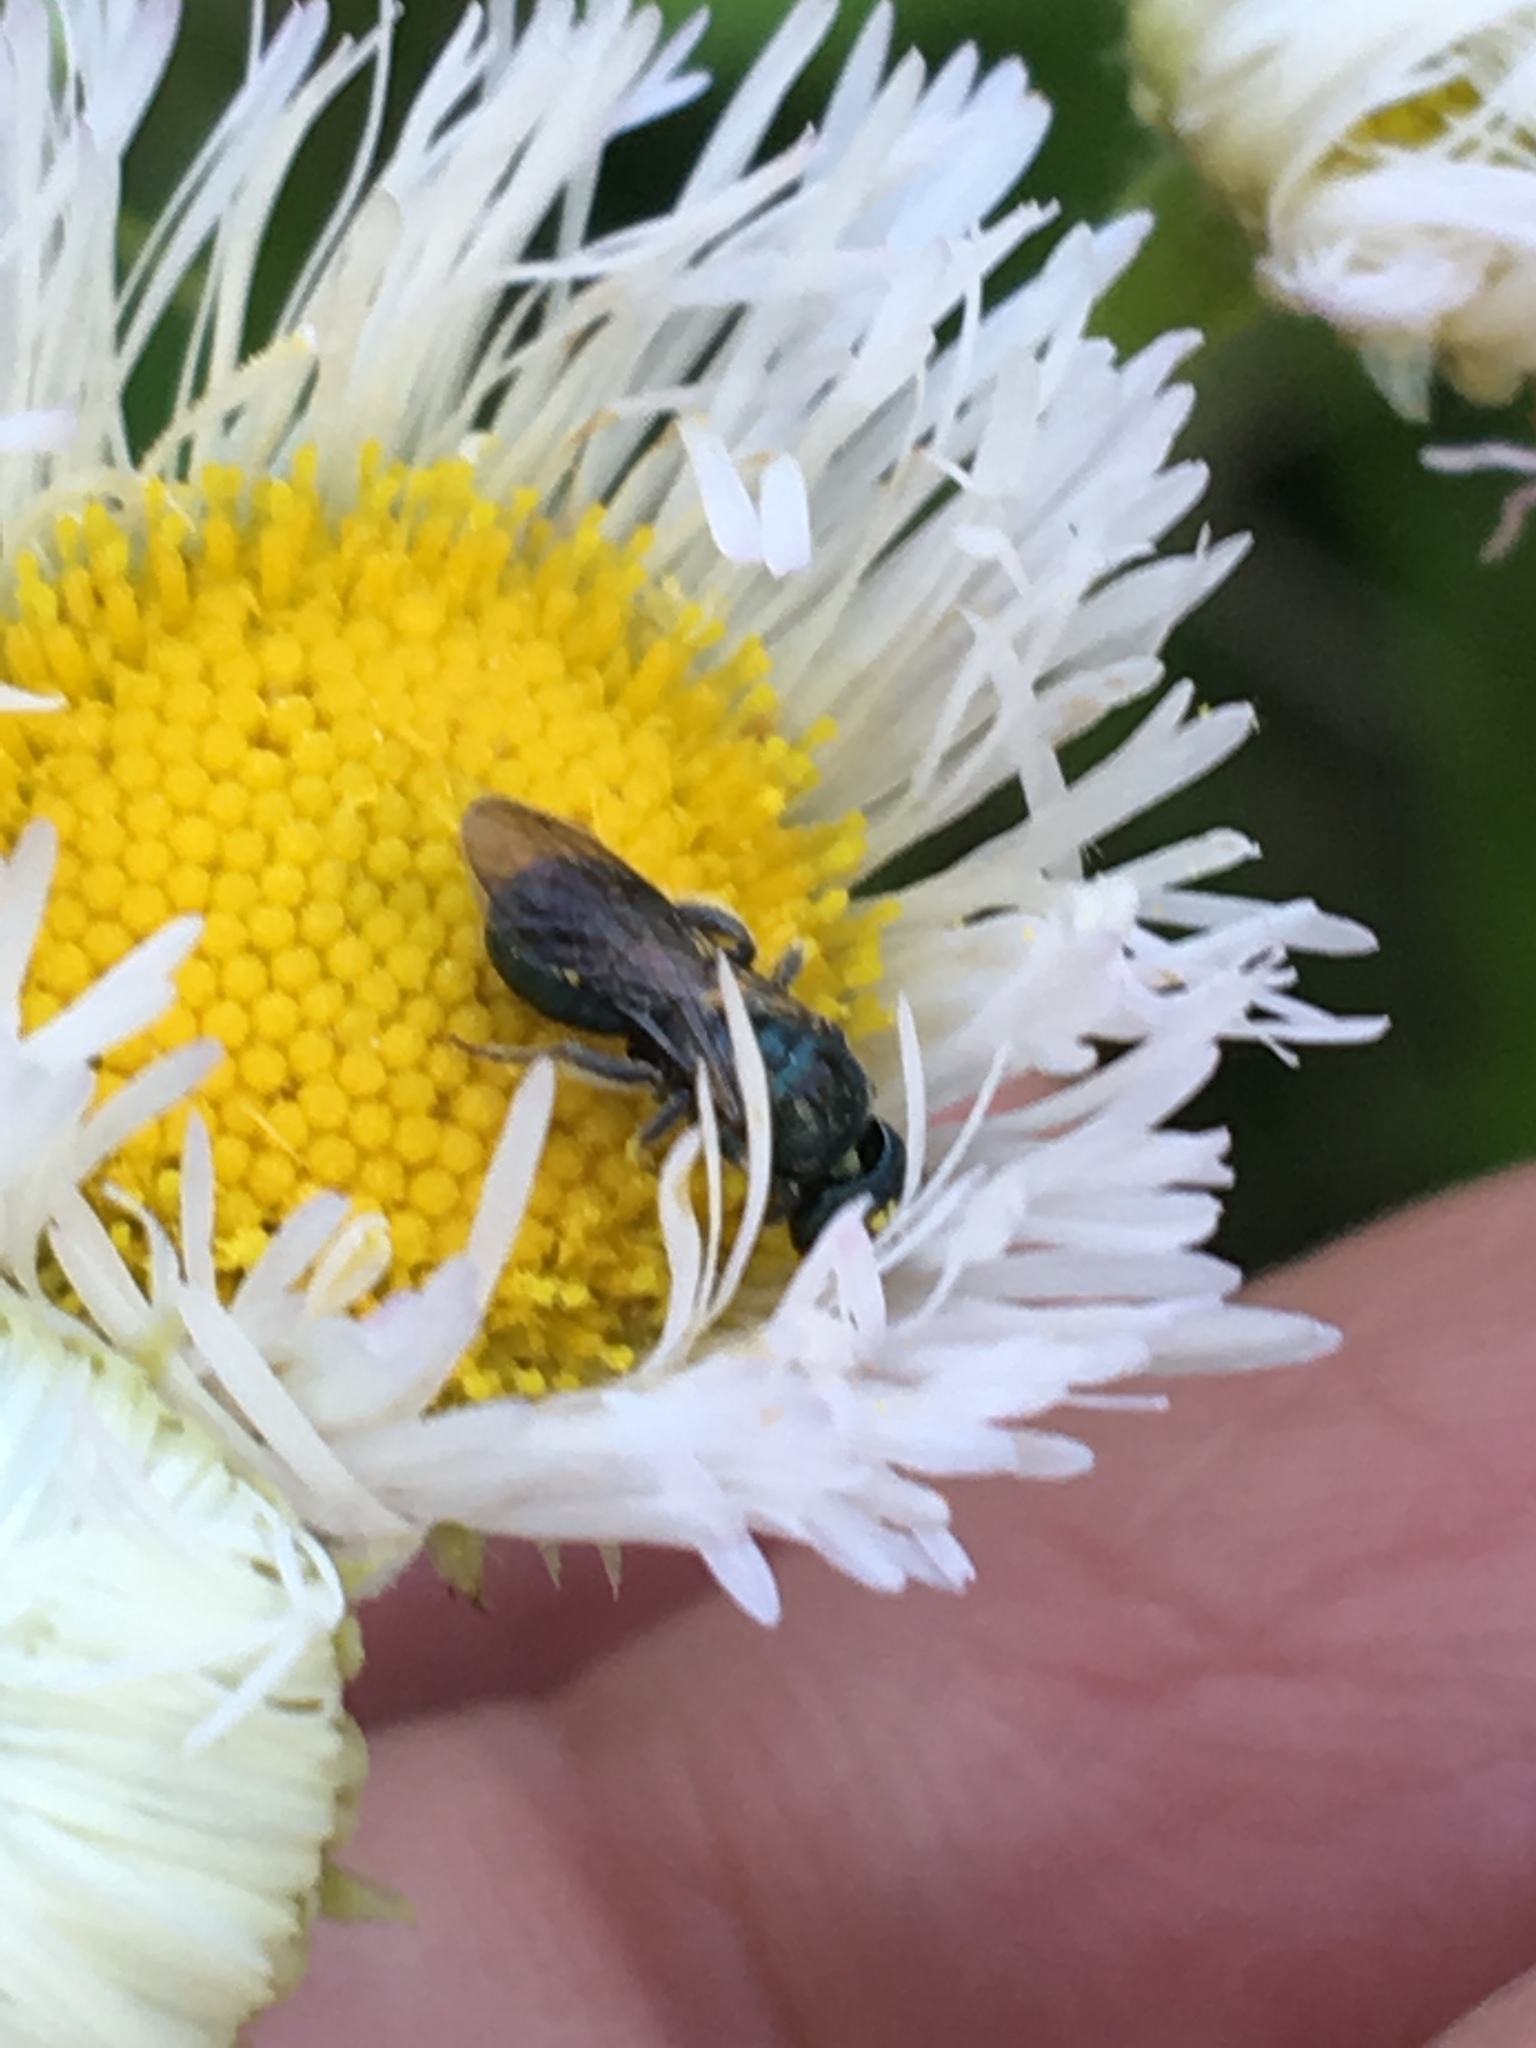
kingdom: Animalia
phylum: Arthropoda
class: Insecta
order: Hymenoptera
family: Apidae
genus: Zadontomerus
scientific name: Zadontomerus
